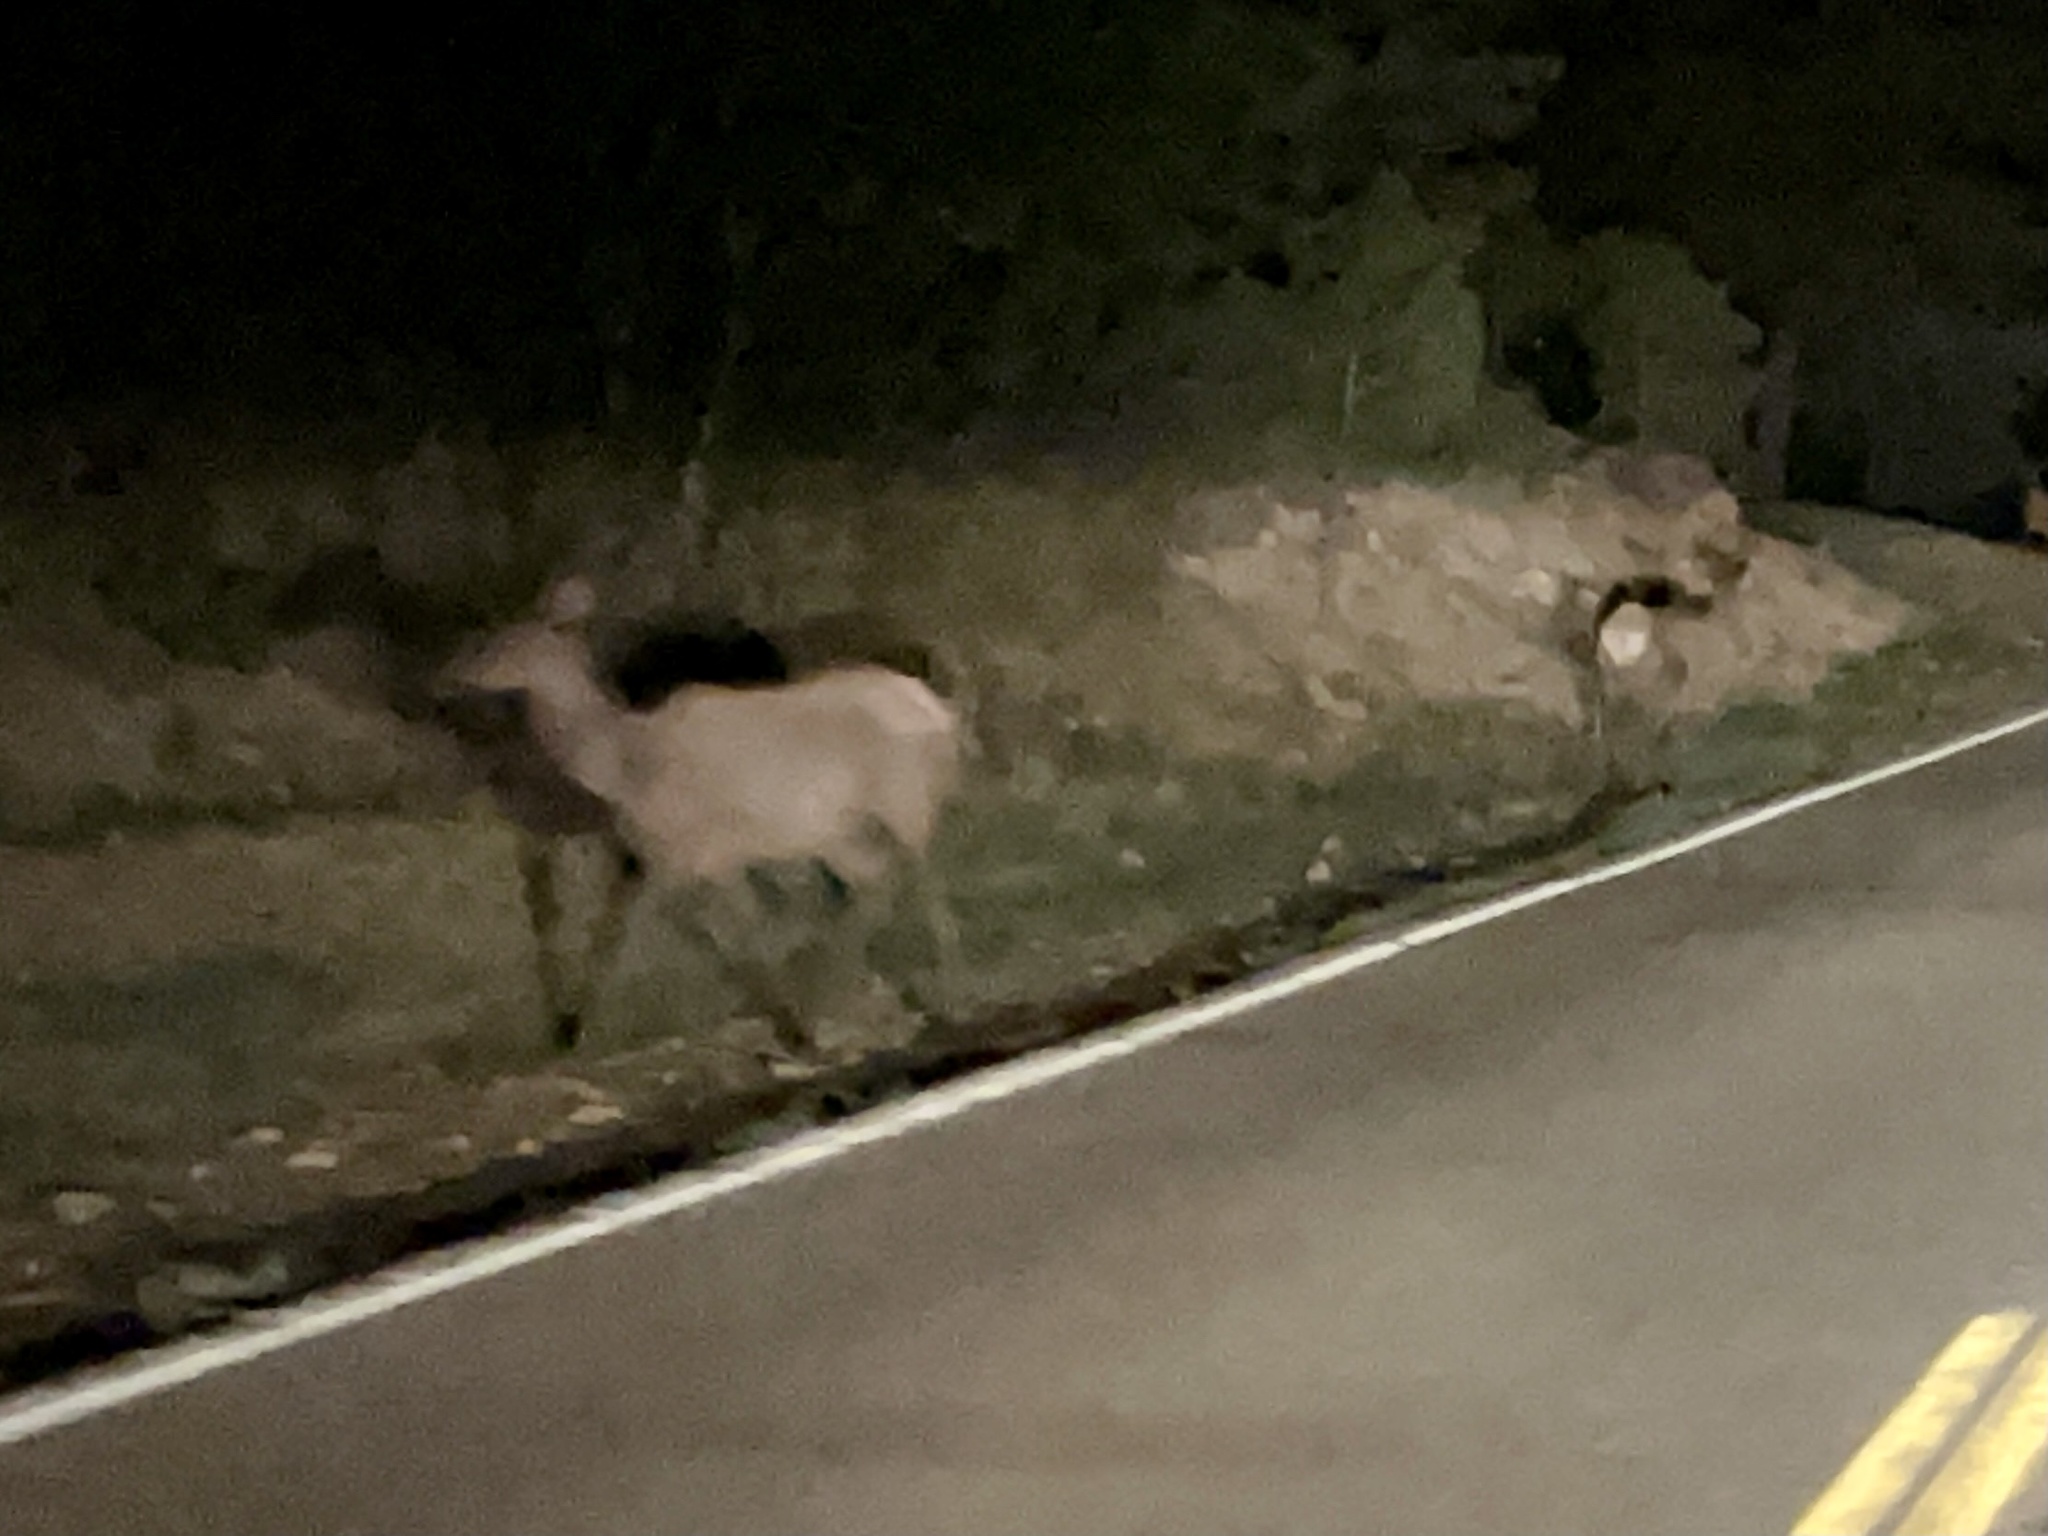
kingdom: Animalia
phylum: Chordata
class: Mammalia
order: Artiodactyla
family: Cervidae
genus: Cervus
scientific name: Cervus elaphus
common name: Red deer
